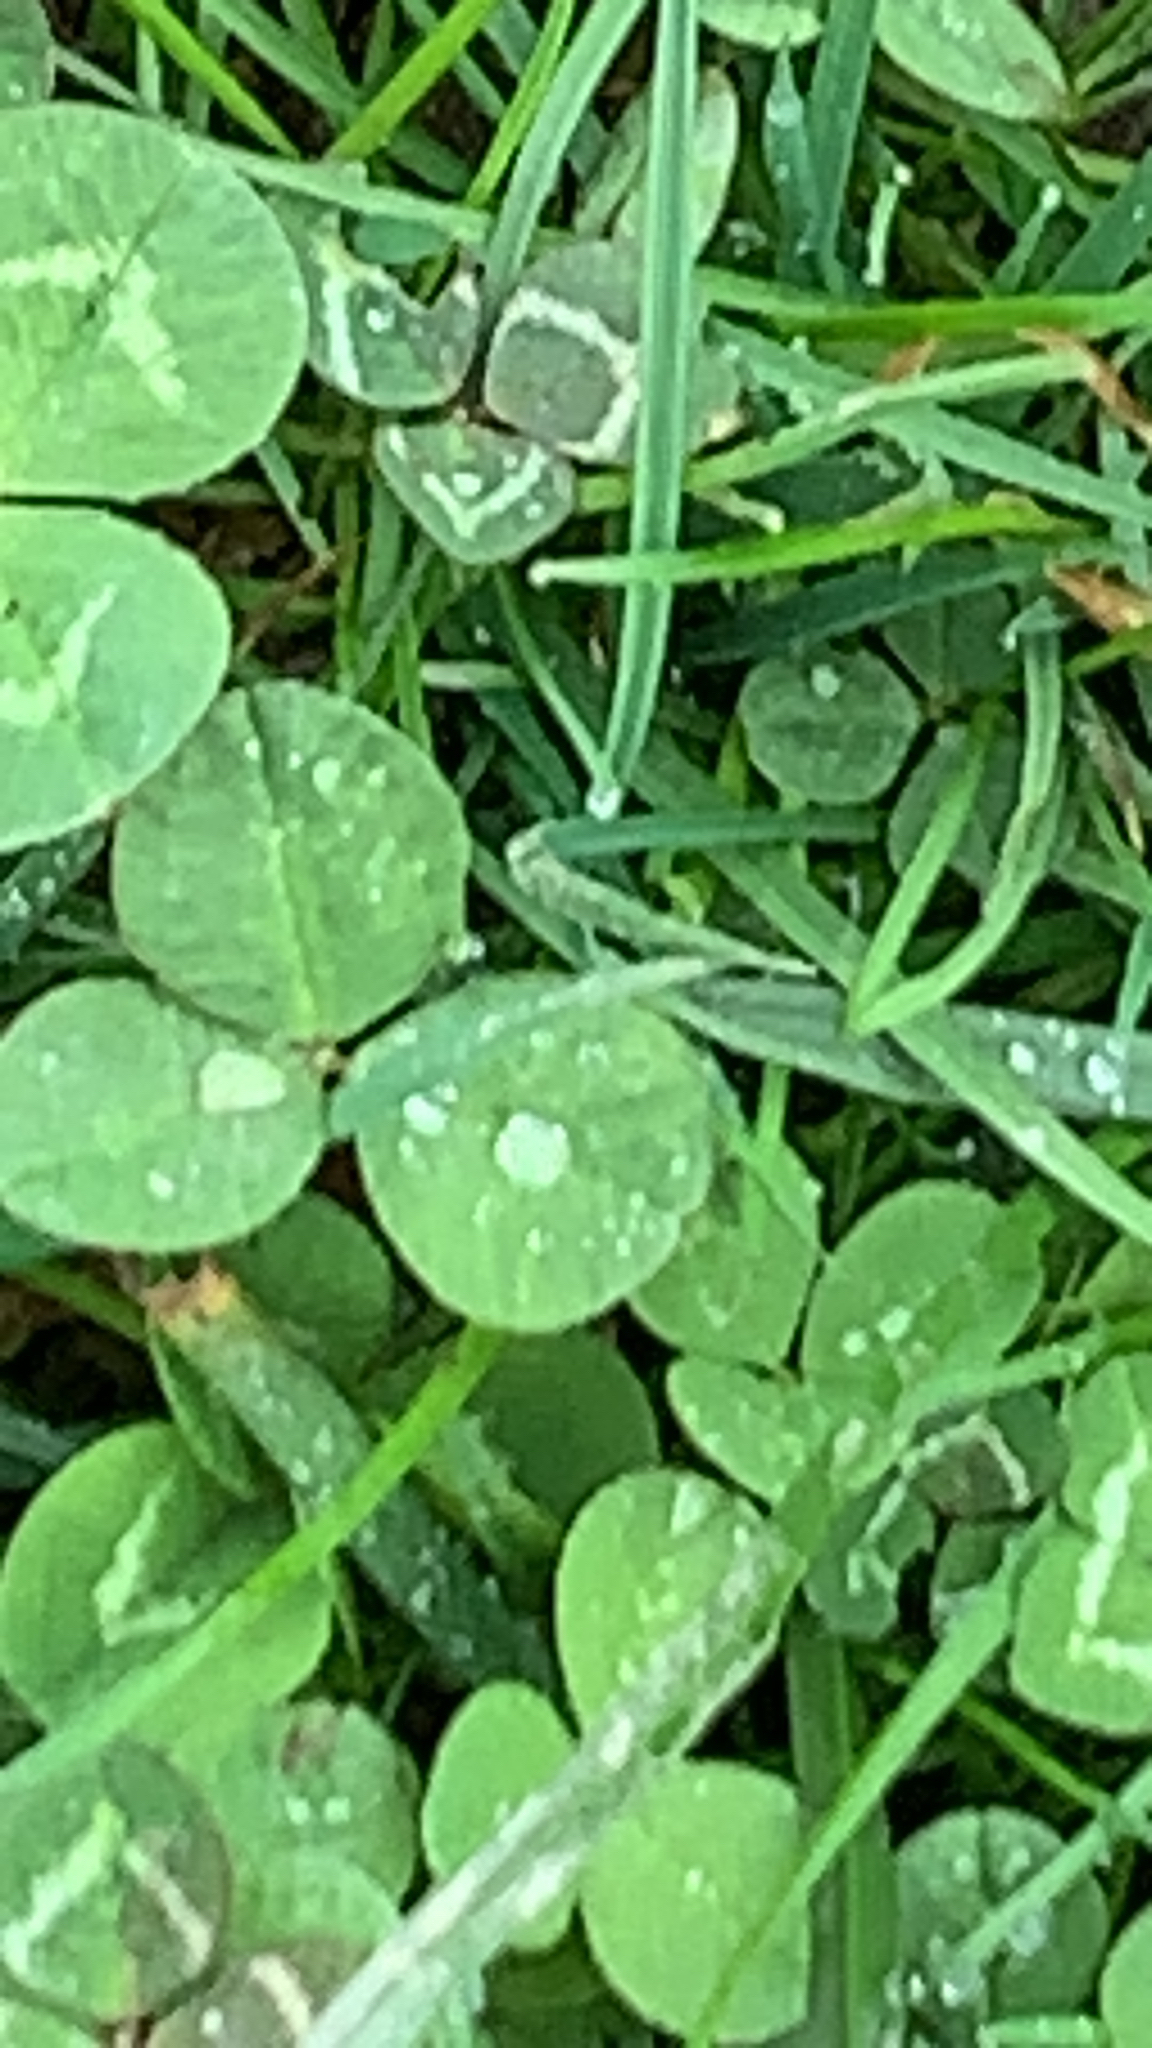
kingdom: Plantae
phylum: Tracheophyta
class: Magnoliopsida
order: Fabales
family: Fabaceae
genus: Trifolium
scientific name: Trifolium repens
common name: White clover
